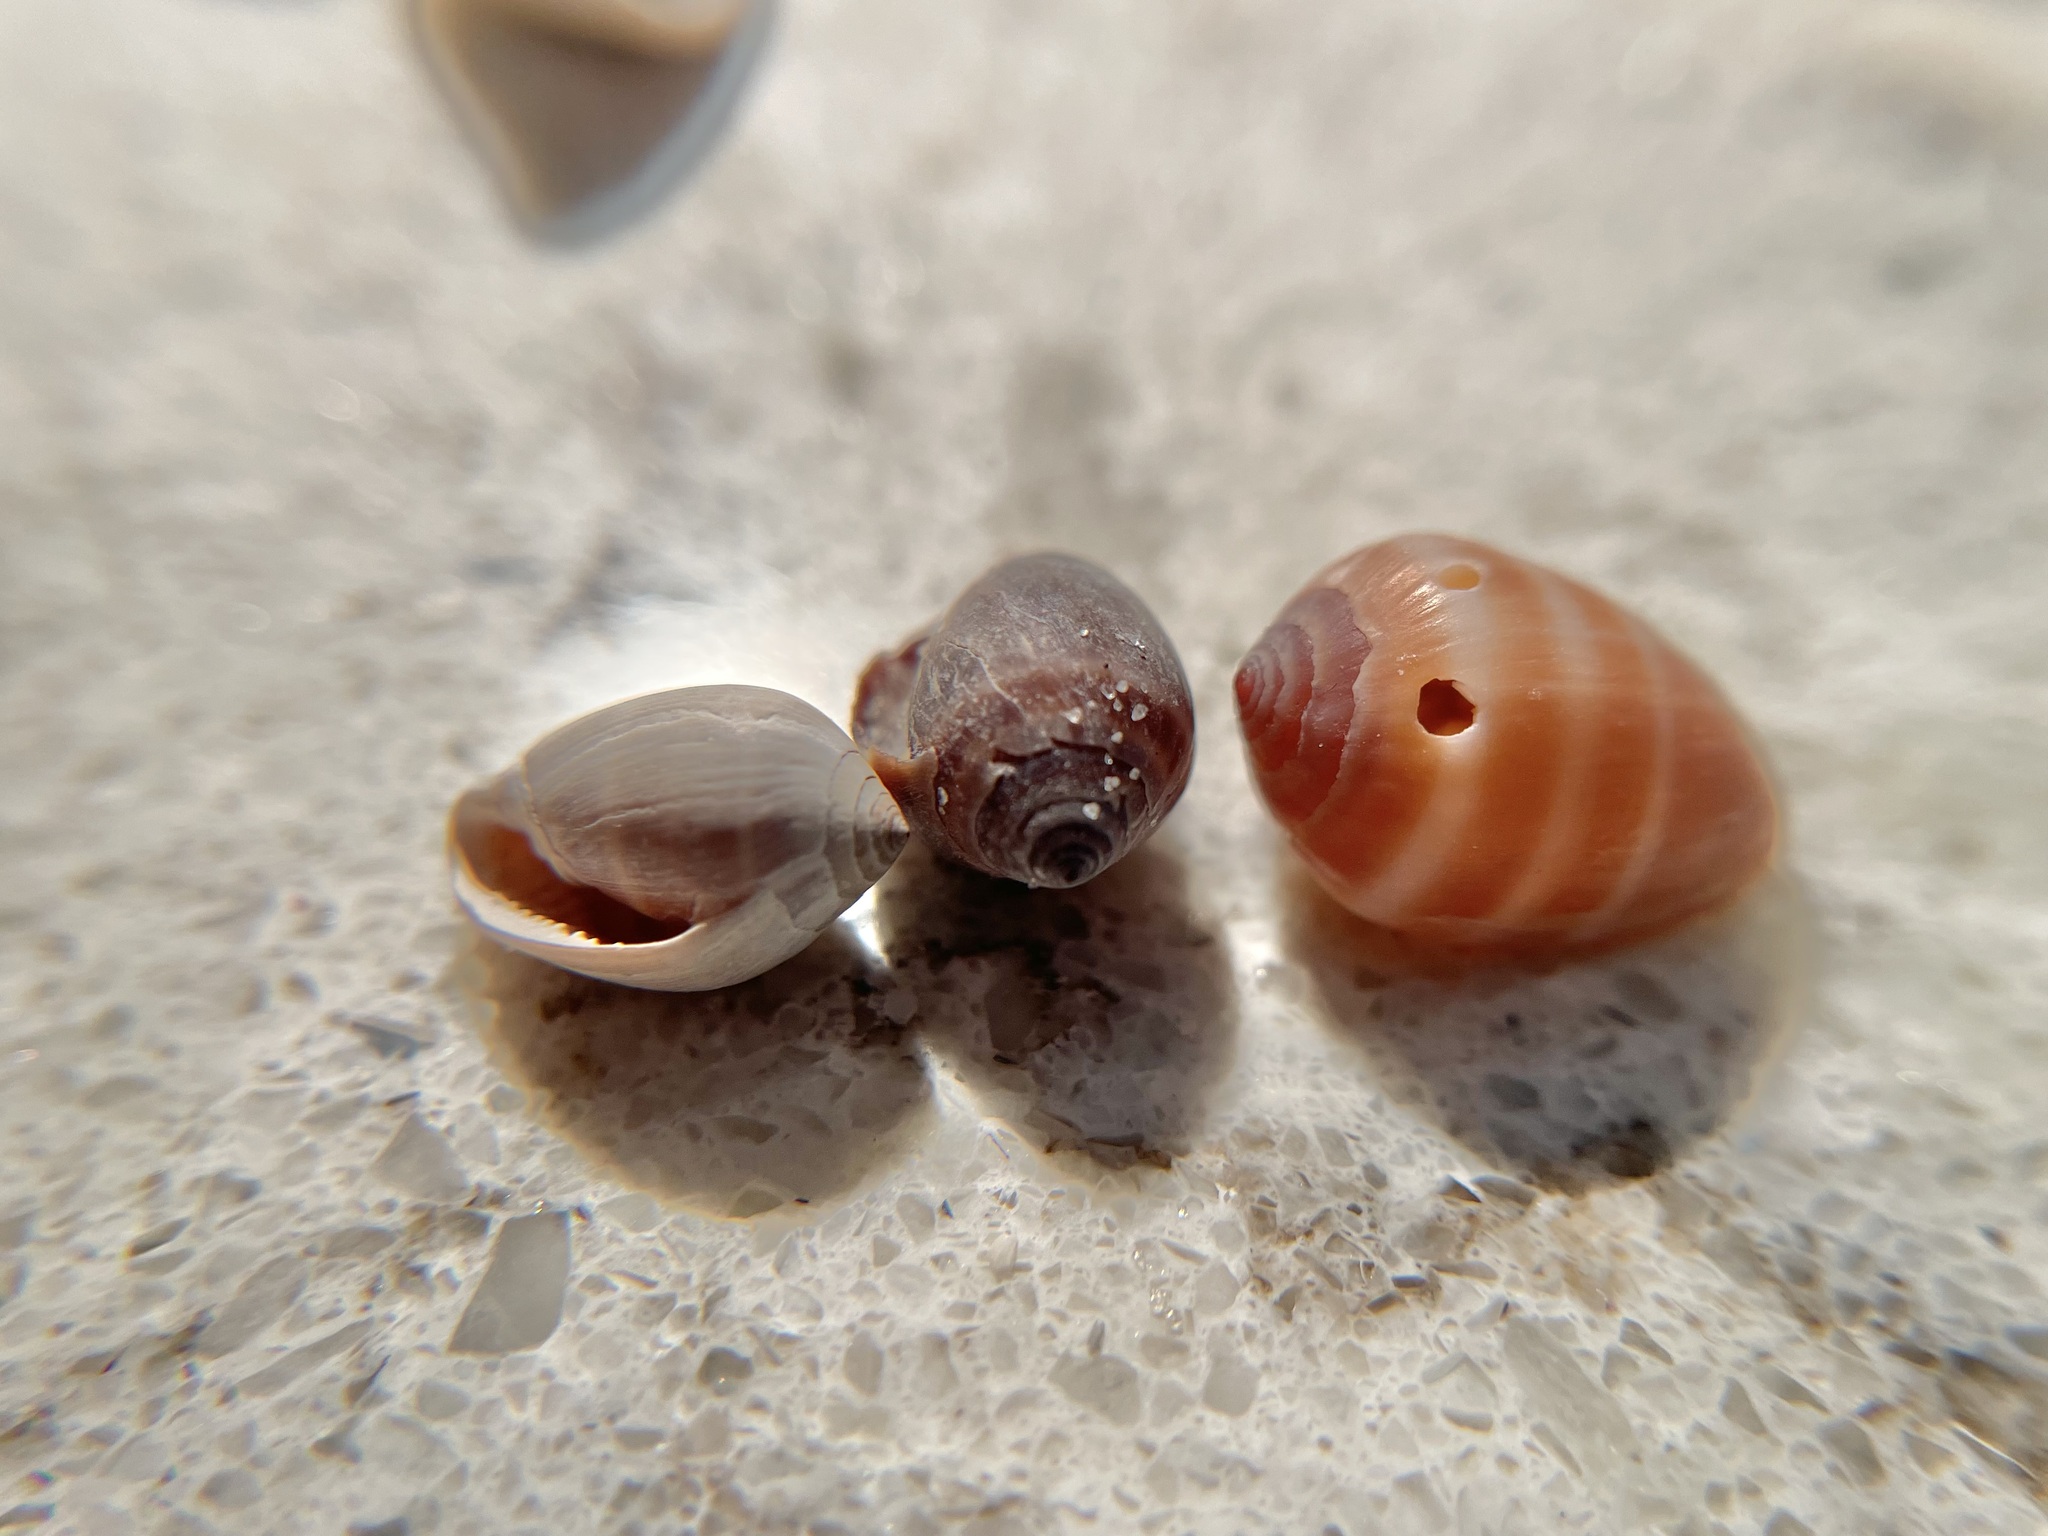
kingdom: Animalia
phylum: Mollusca
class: Gastropoda
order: Ellobiida
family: Ellobiidae
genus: Melampus
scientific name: Melampus coffea
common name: Coffee bean snail
